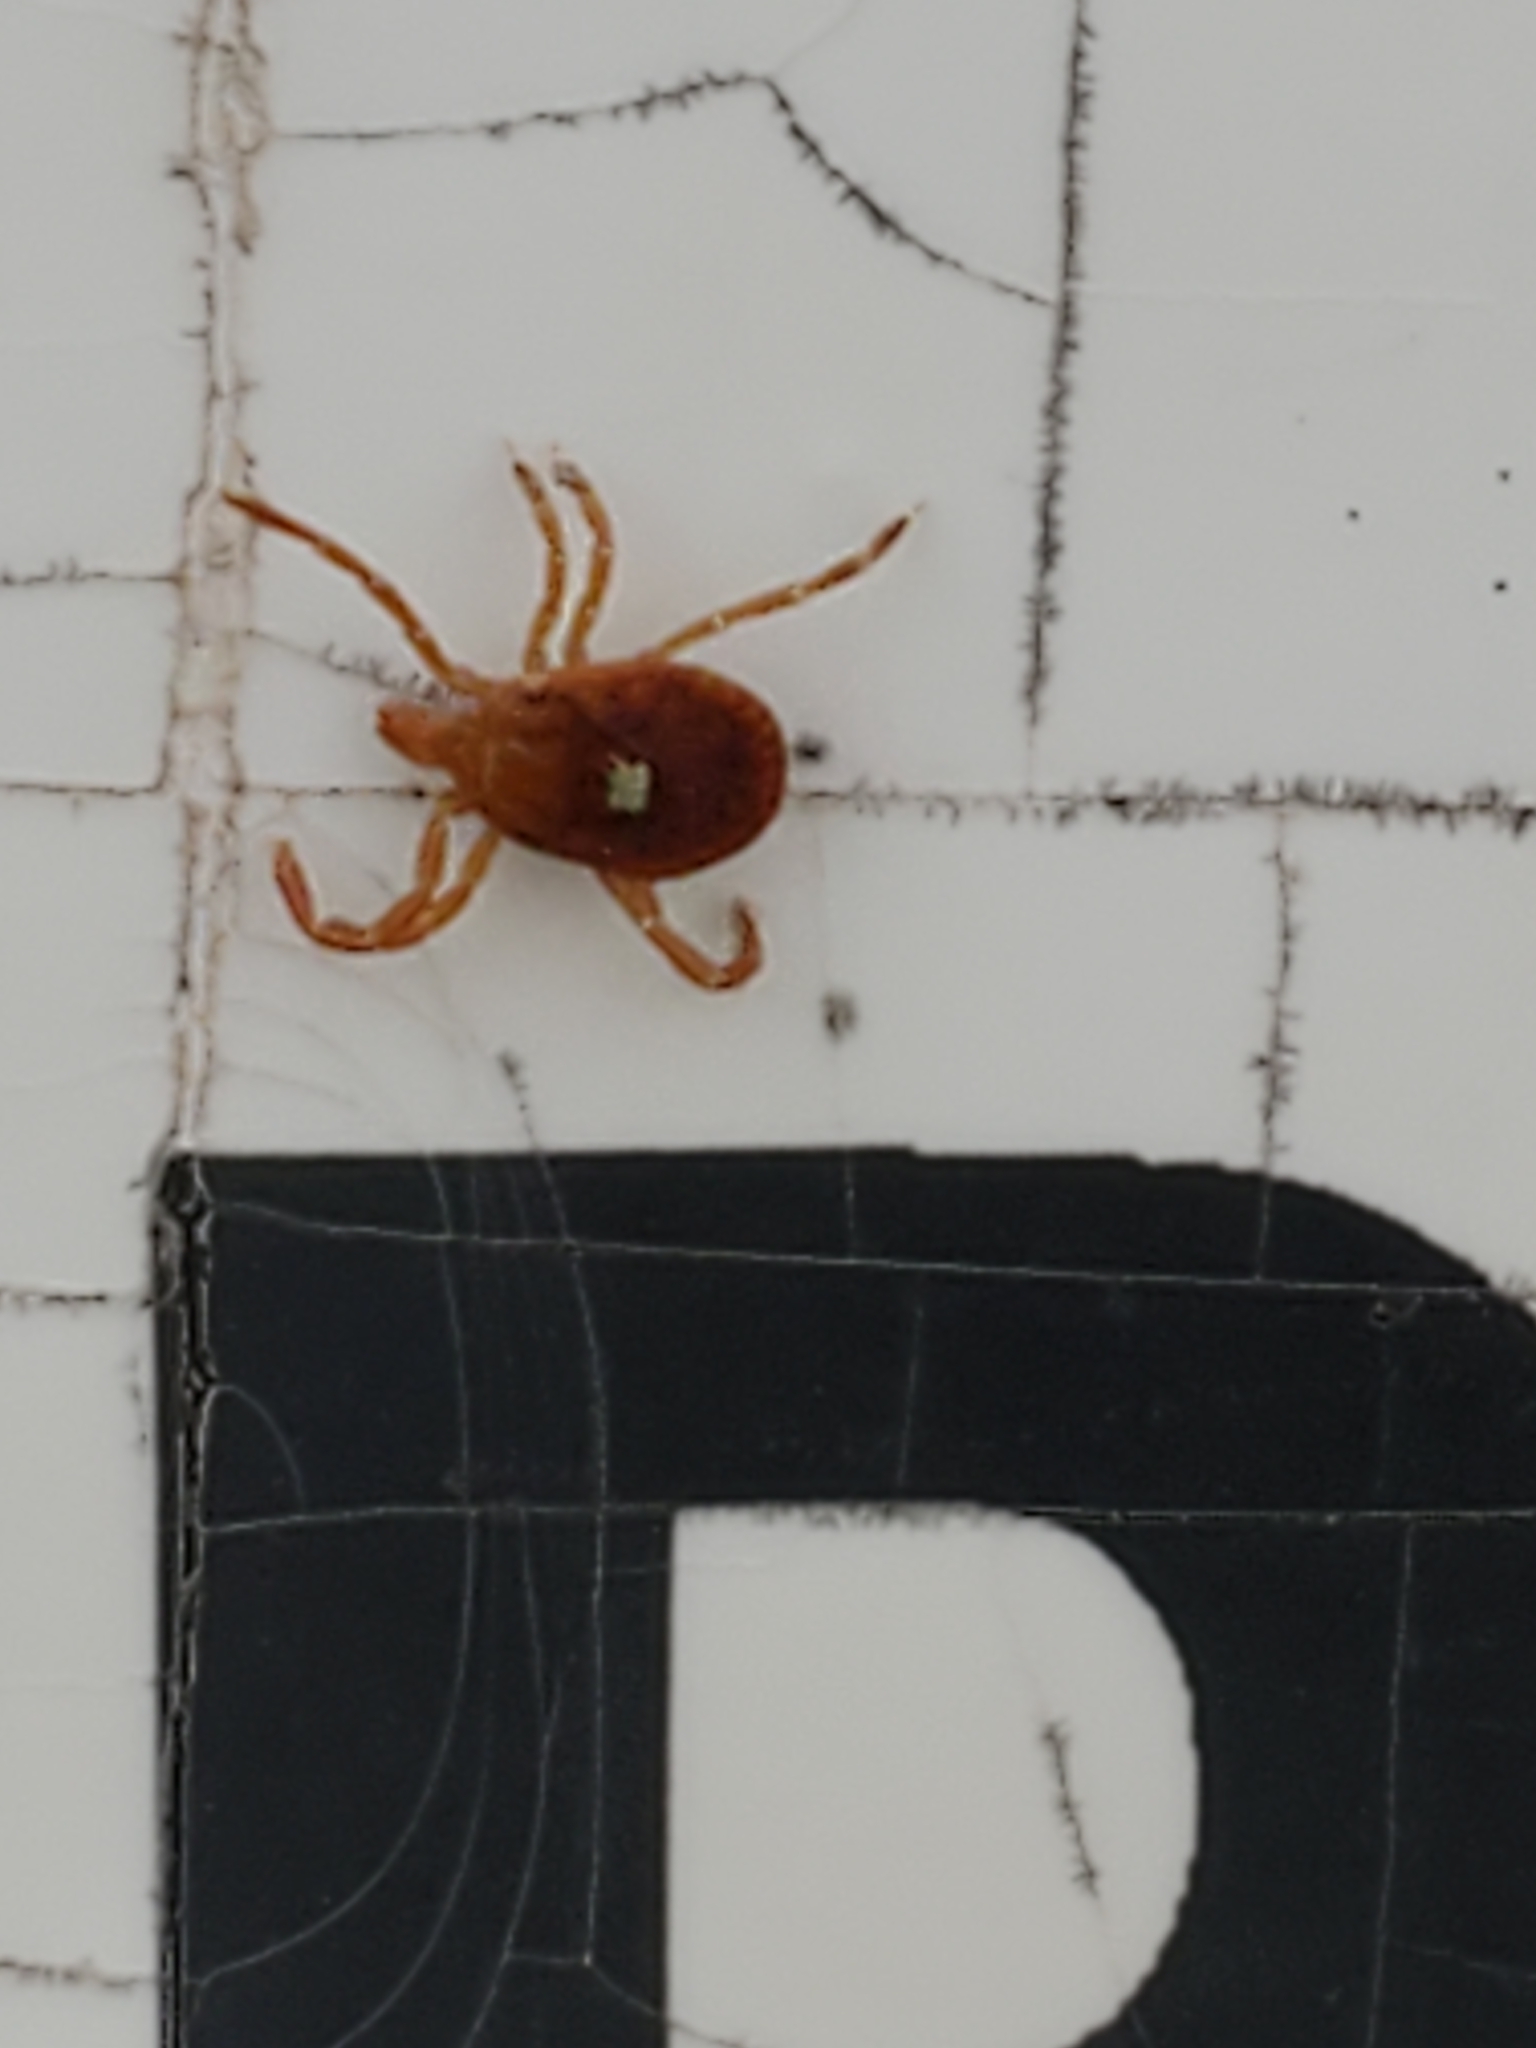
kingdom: Animalia
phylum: Arthropoda
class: Arachnida
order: Ixodida
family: Ixodidae
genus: Amblyomma
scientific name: Amblyomma americanum
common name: Lone star tick
